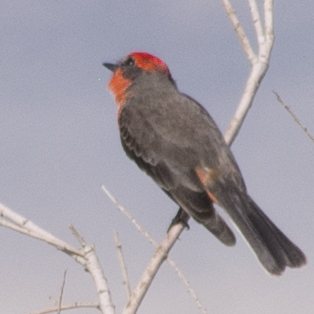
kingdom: Animalia
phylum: Chordata
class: Aves
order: Passeriformes
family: Tyrannidae
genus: Pyrocephalus
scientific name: Pyrocephalus rubinus
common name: Vermilion flycatcher
